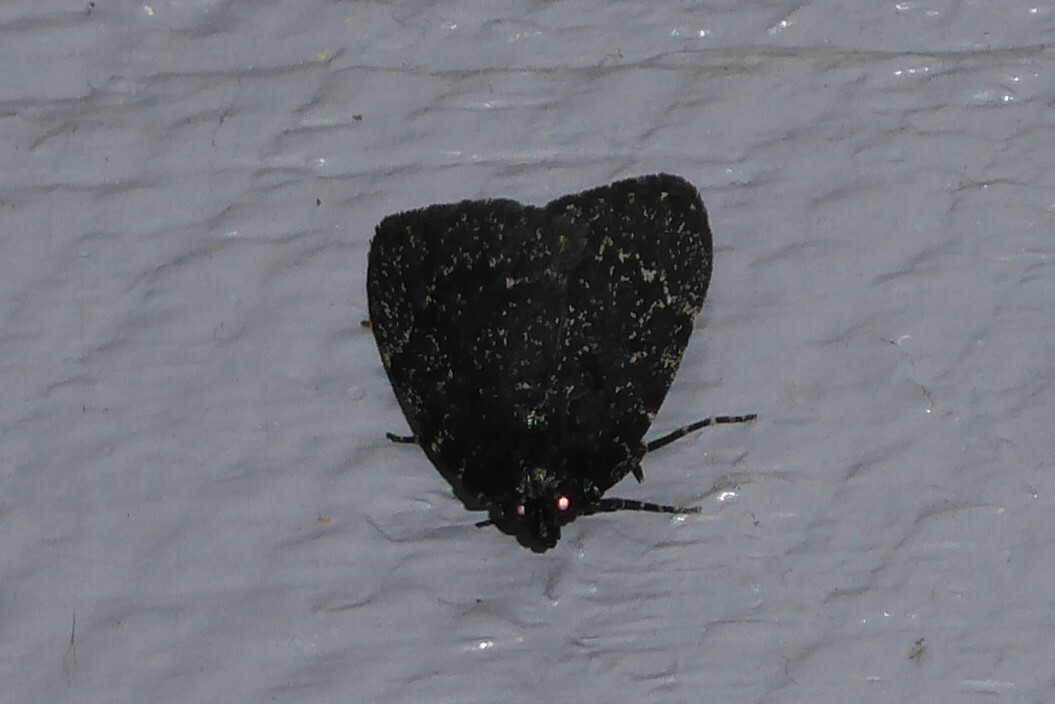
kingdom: Animalia
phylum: Arthropoda
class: Insecta
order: Lepidoptera
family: Pyralidae
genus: Stericta
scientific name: Stericta carbonalis
